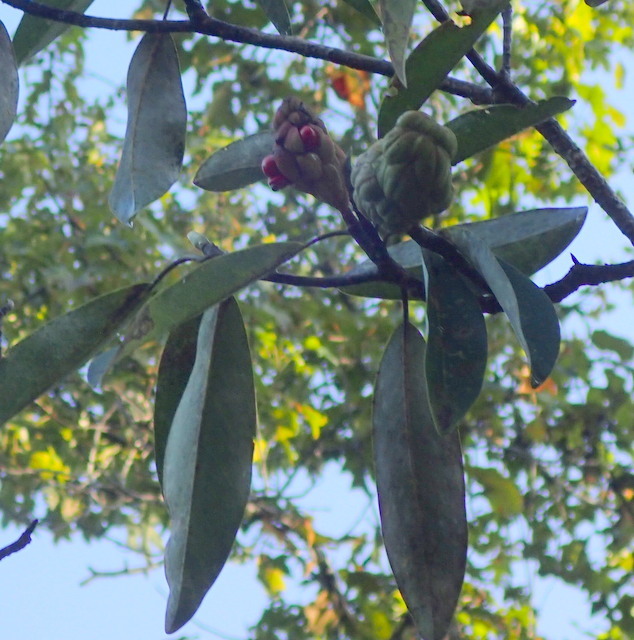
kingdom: Plantae
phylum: Tracheophyta
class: Magnoliopsida
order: Magnoliales
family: Magnoliaceae
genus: Magnolia
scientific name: Magnolia virginiana
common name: Swamp bay
